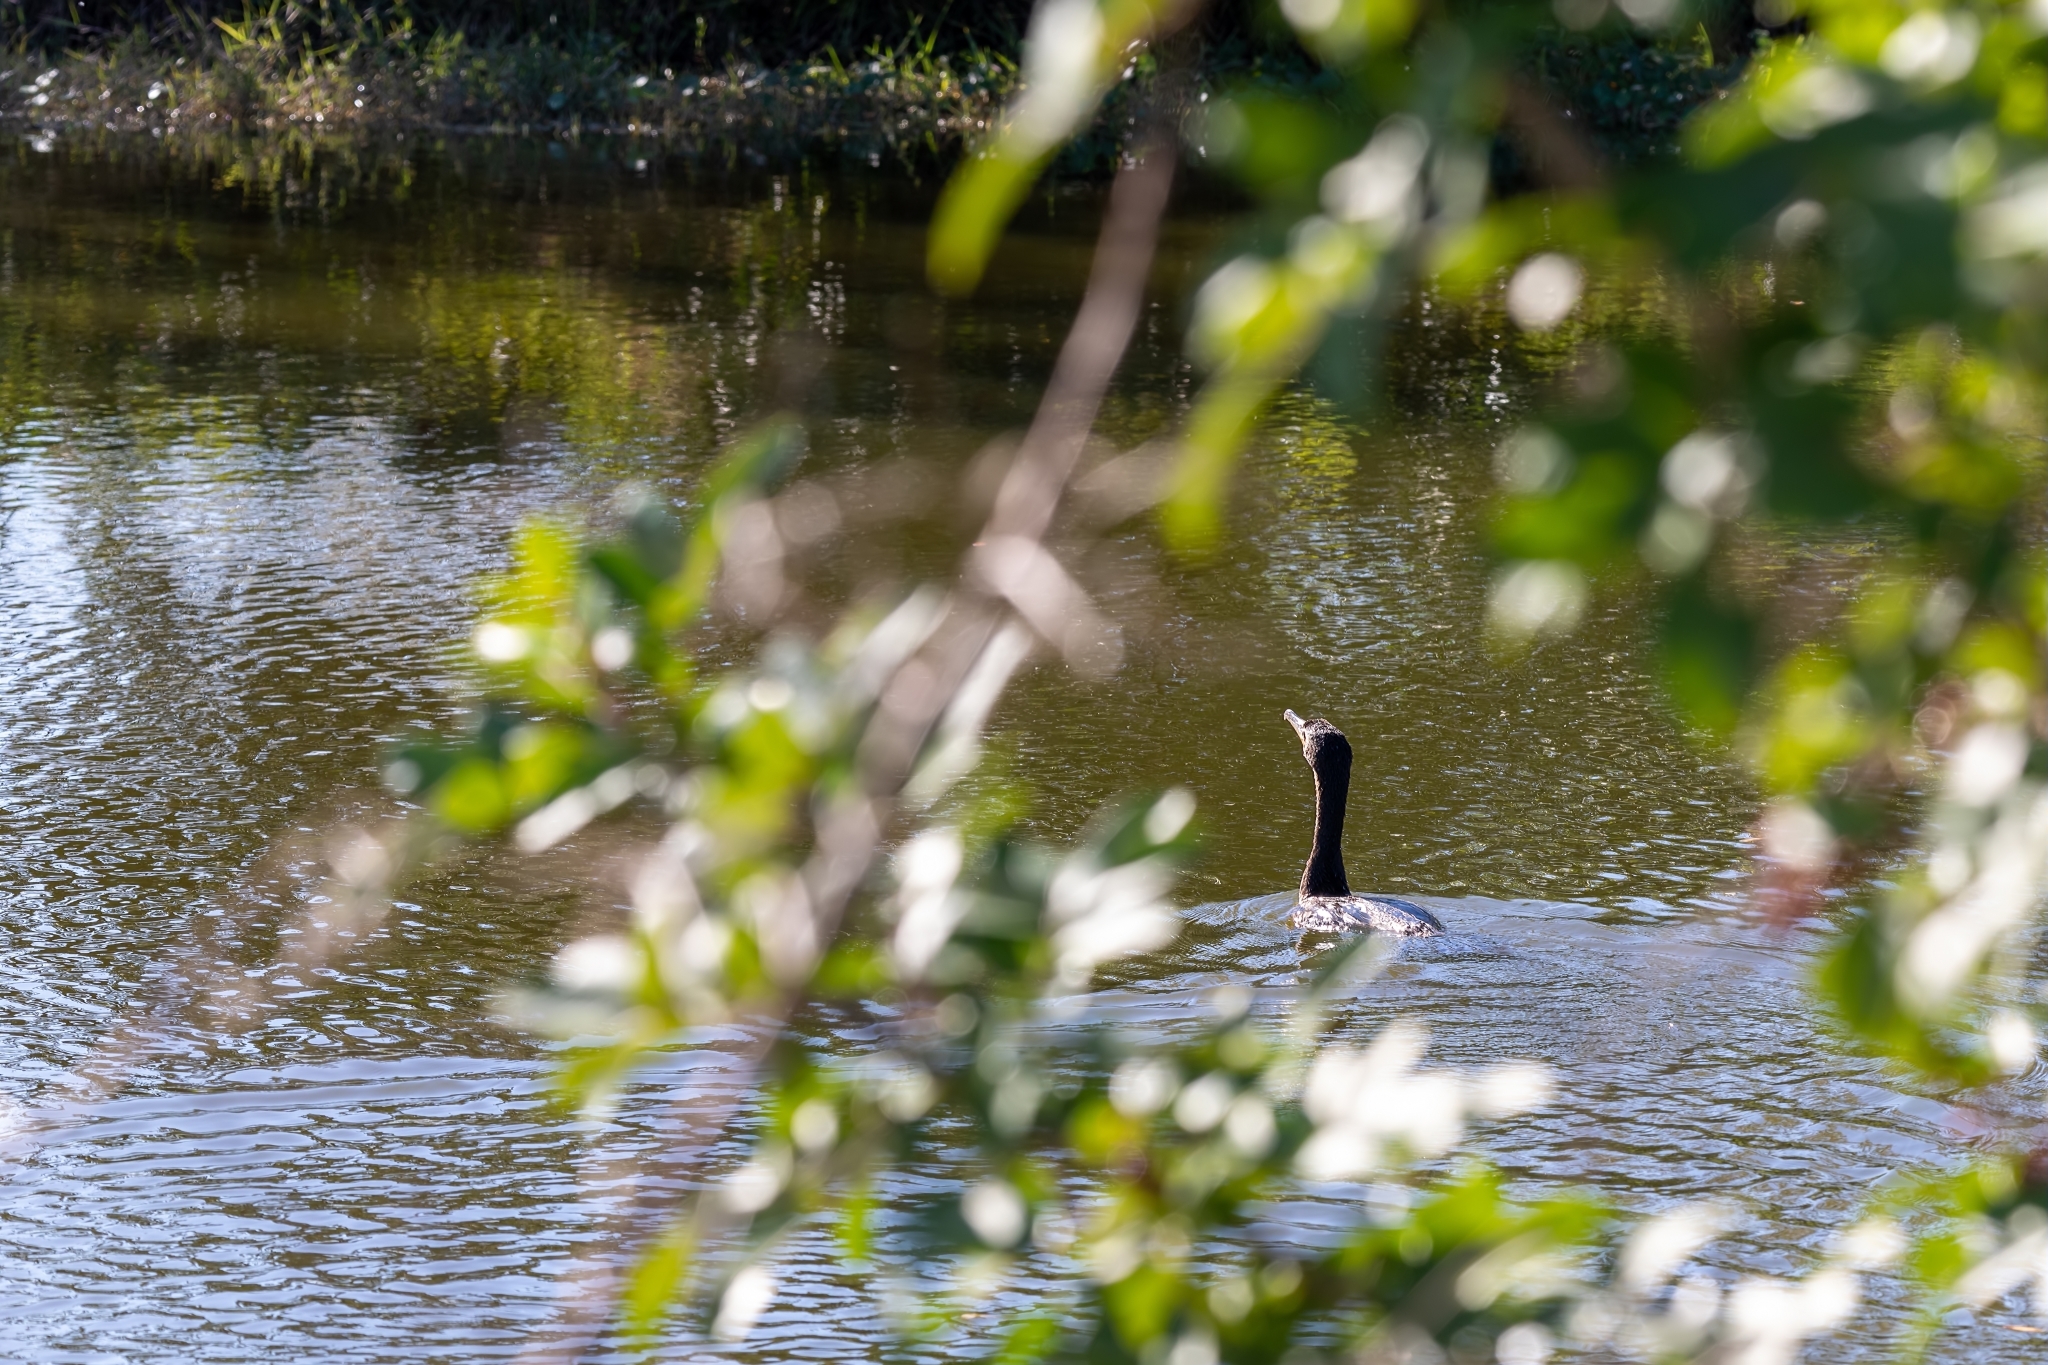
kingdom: Animalia
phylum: Chordata
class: Aves
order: Suliformes
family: Phalacrocoracidae
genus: Phalacrocorax
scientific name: Phalacrocorax auritus
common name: Double-crested cormorant
